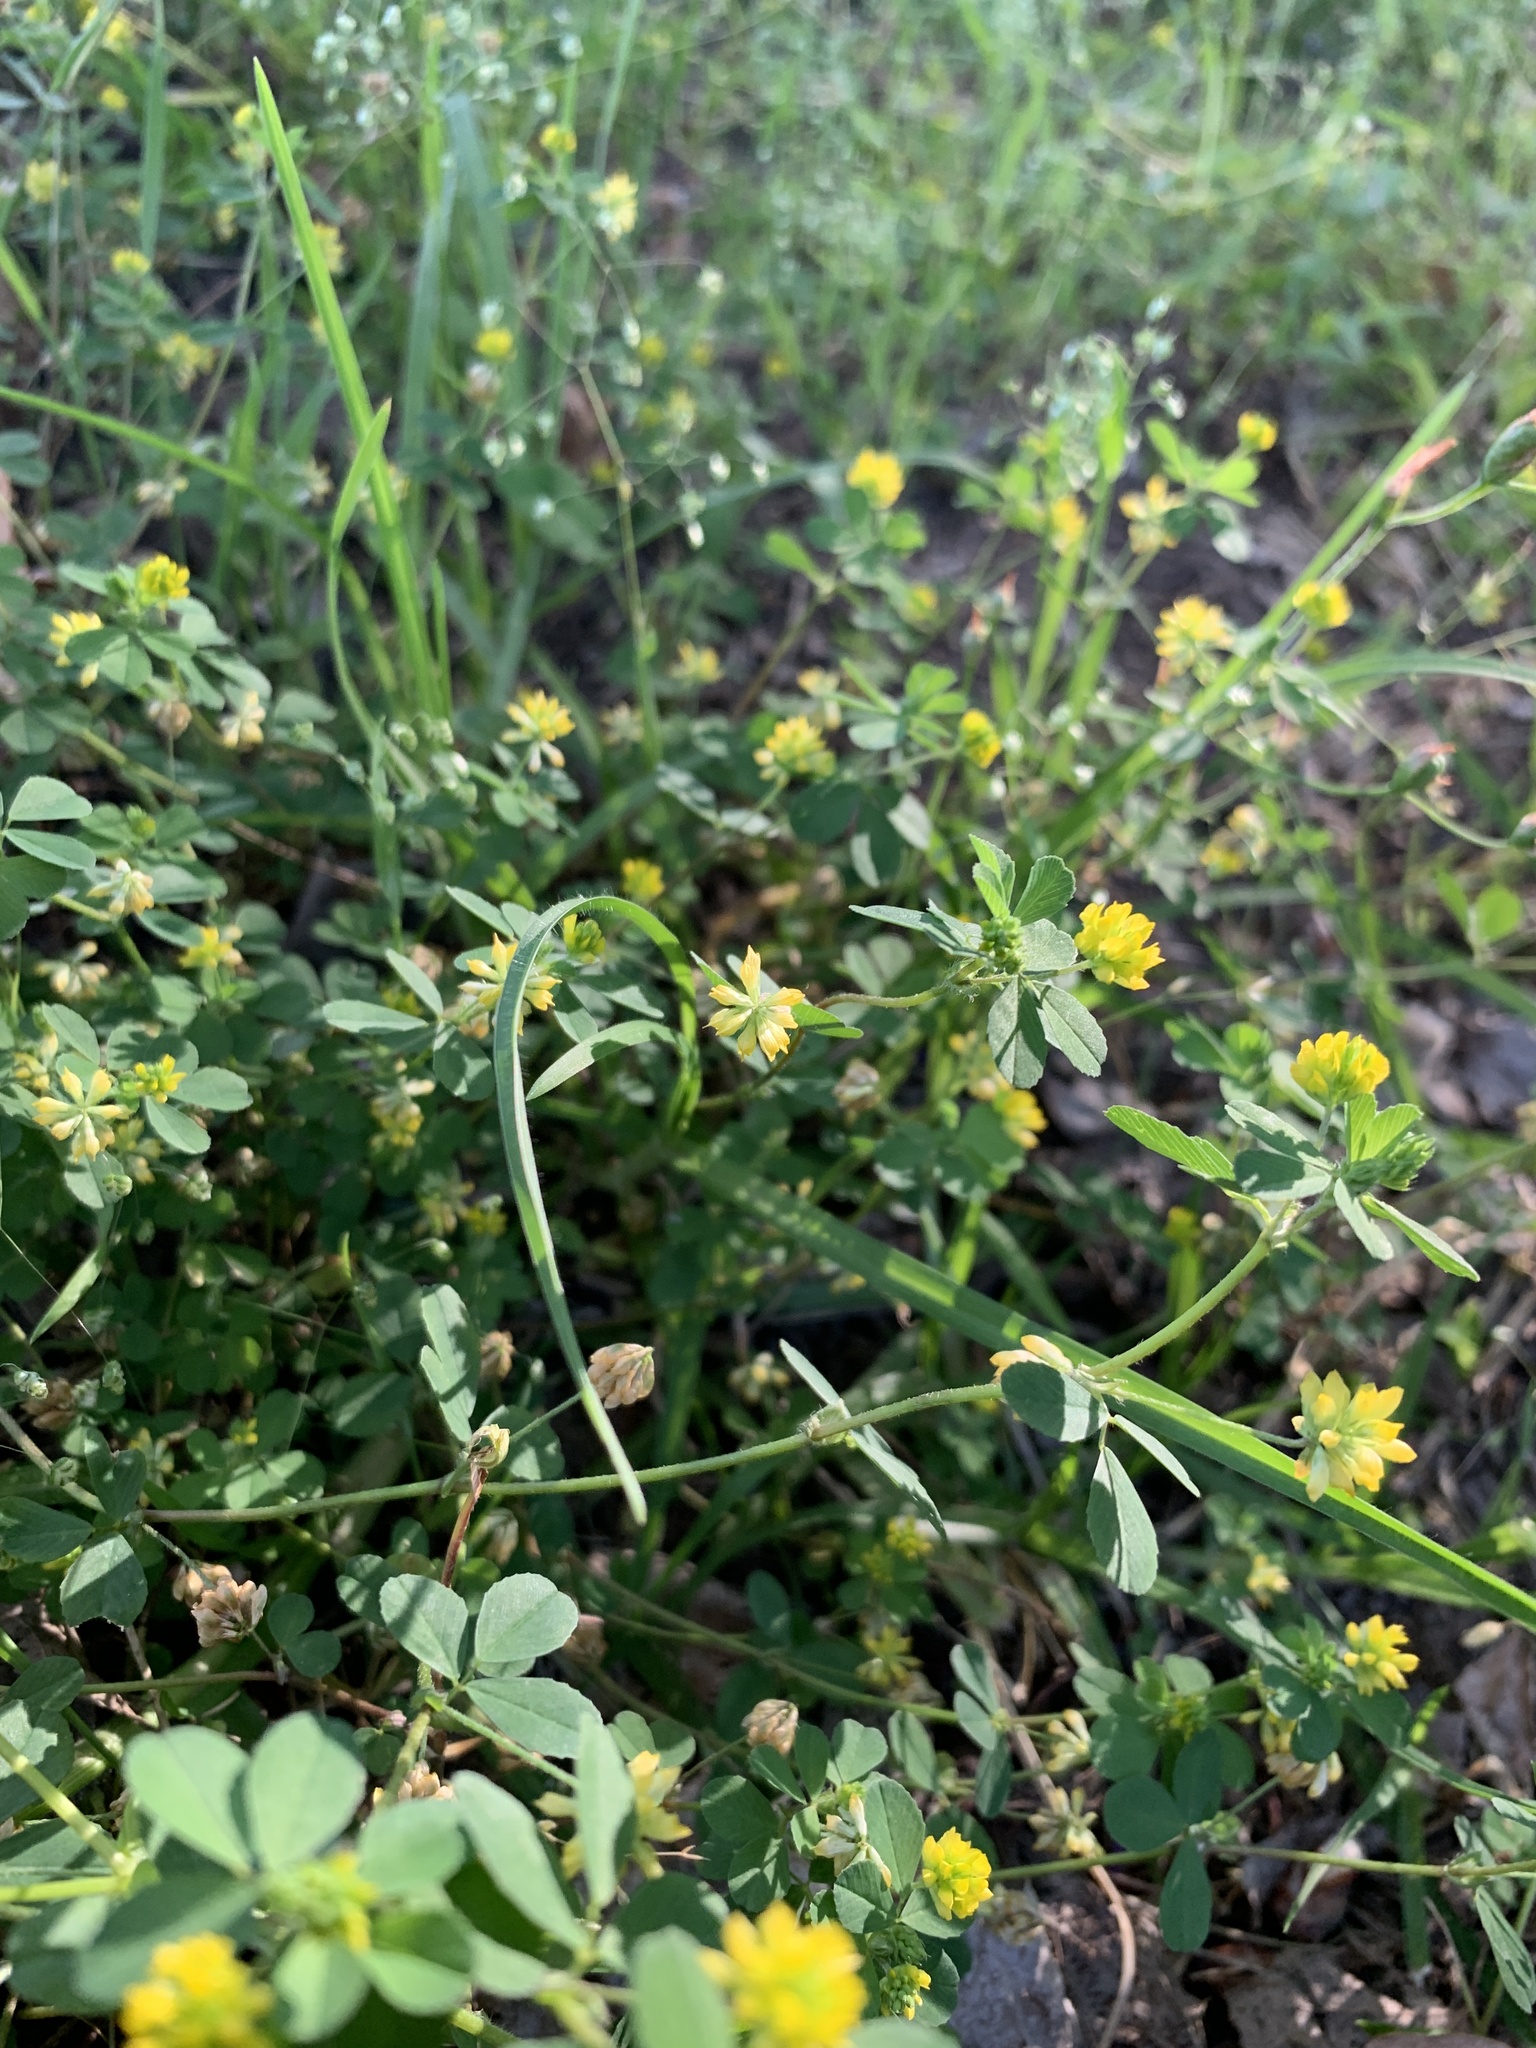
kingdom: Plantae
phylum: Tracheophyta
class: Magnoliopsida
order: Fabales
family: Fabaceae
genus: Trifolium
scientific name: Trifolium dubium
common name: Suckling clover
